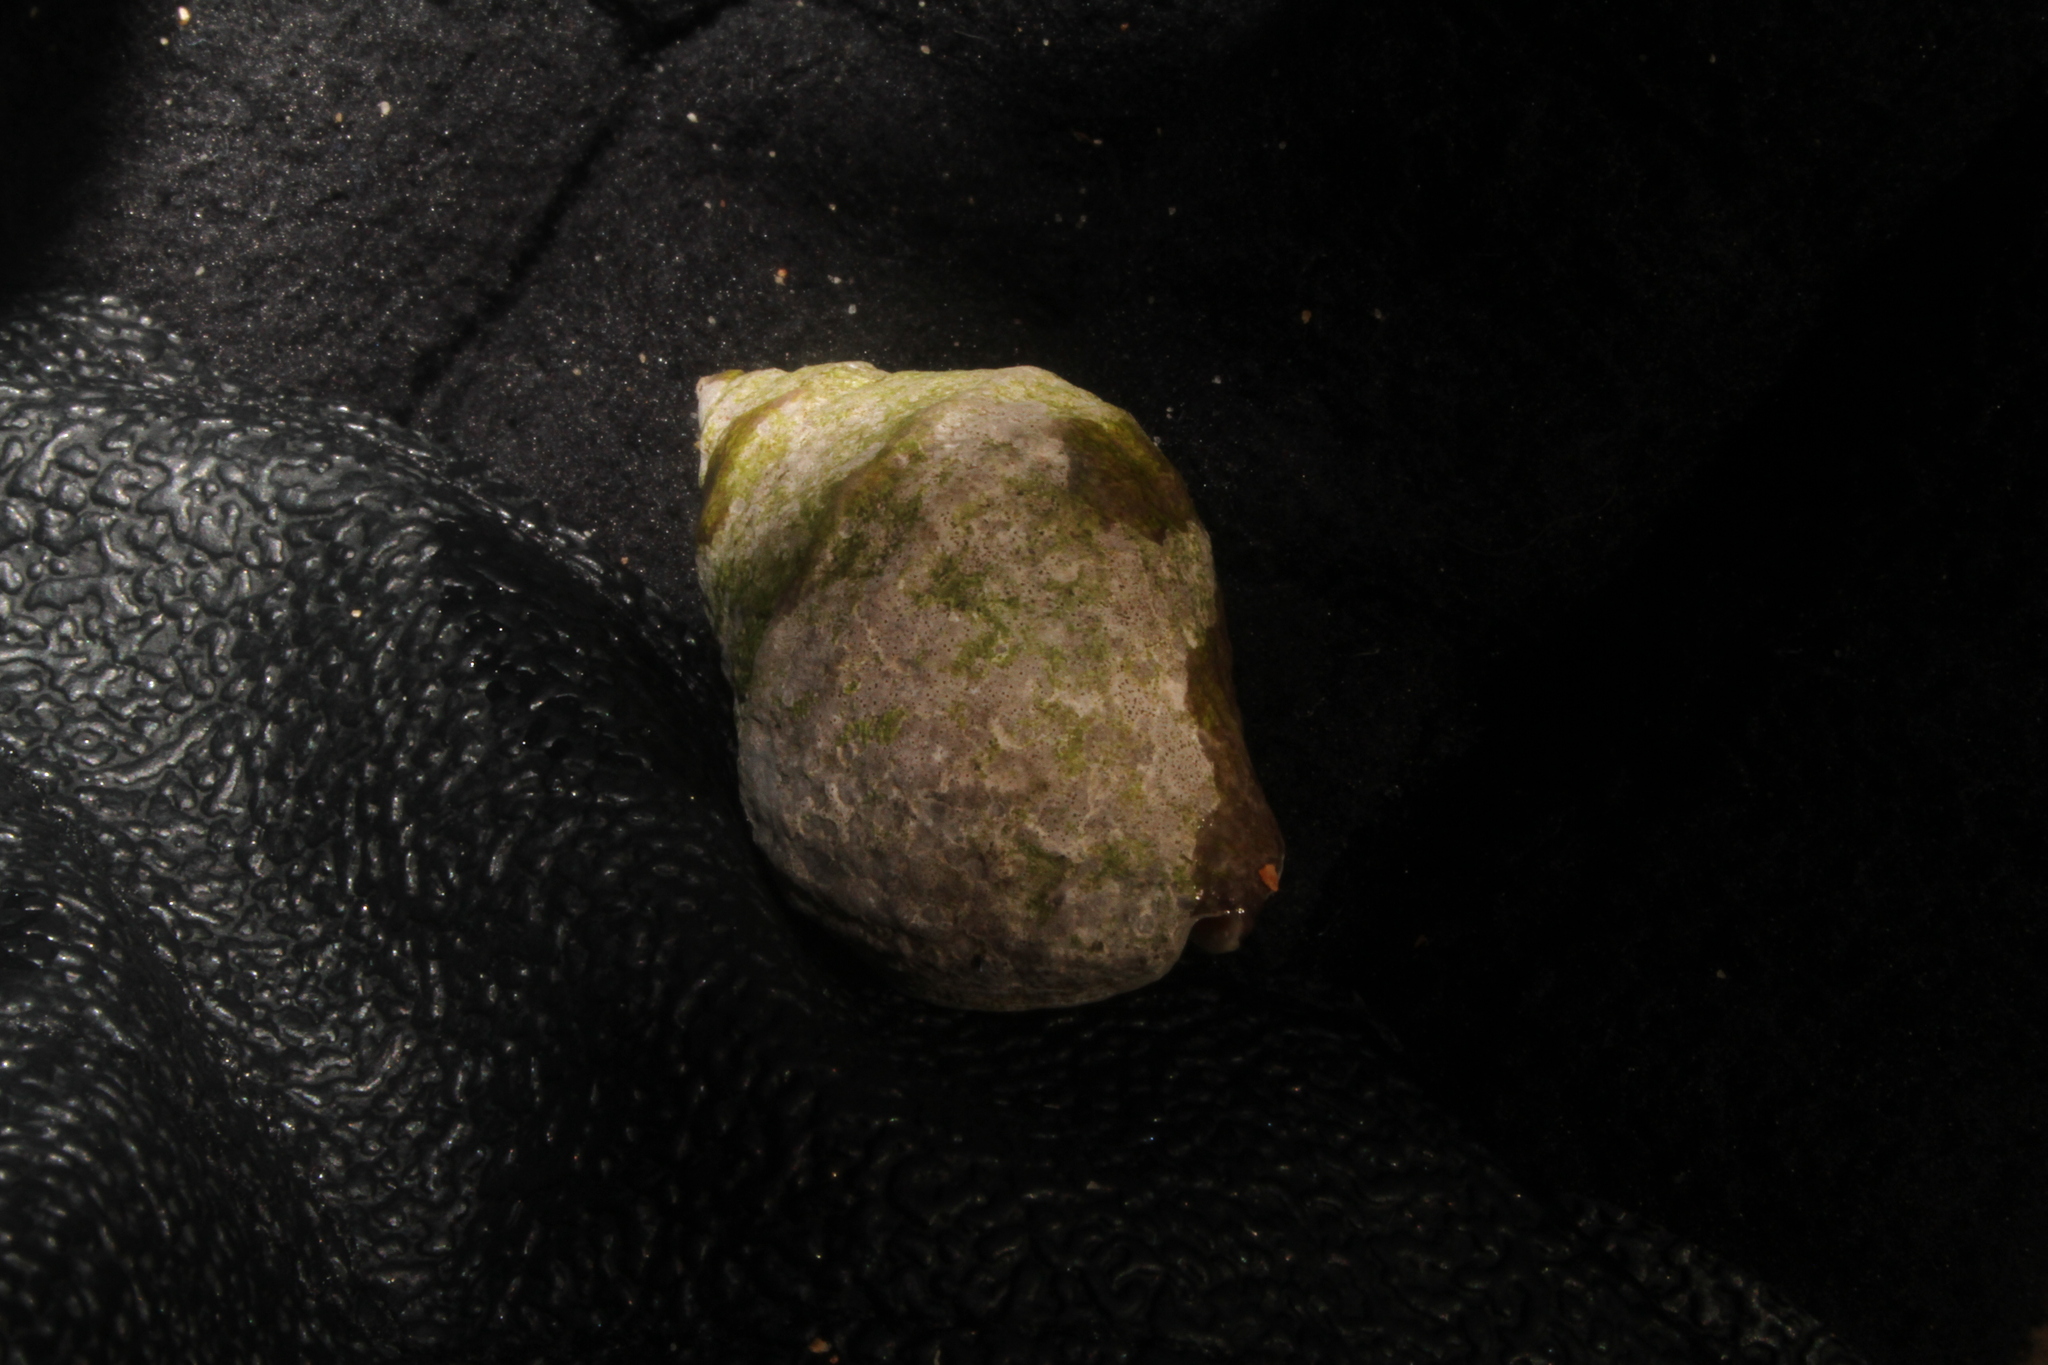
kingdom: Animalia
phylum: Mollusca
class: Gastropoda
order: Neogastropoda
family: Muricidae
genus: Nucella
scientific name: Nucella lapillus
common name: Dog whelk
